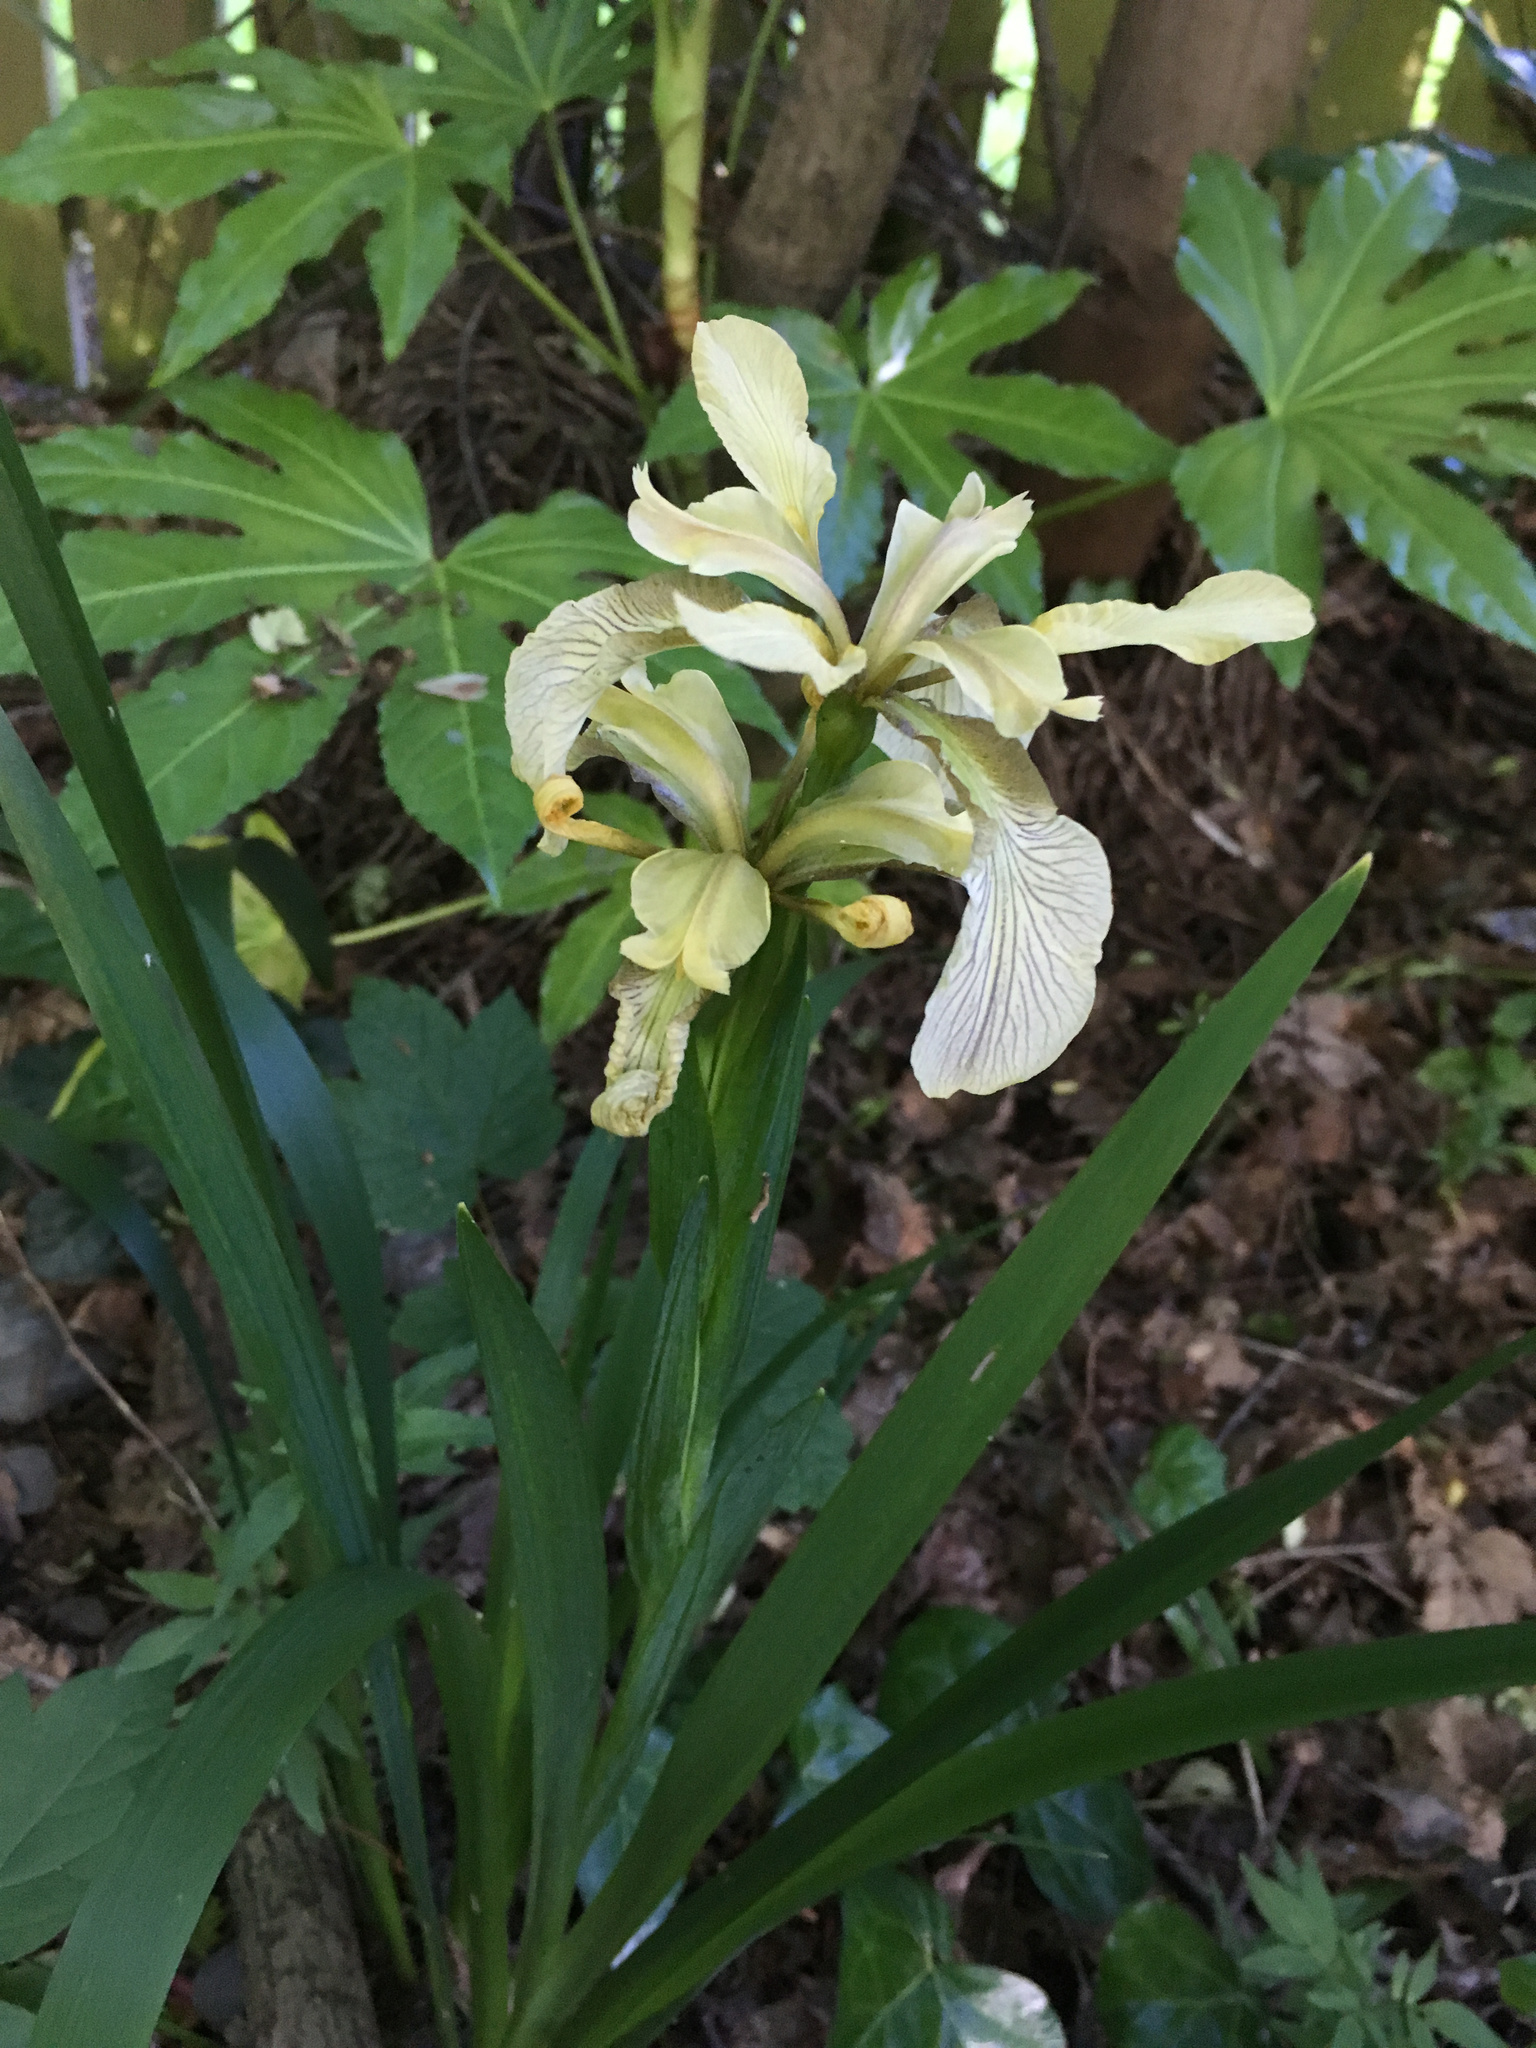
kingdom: Plantae
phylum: Tracheophyta
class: Liliopsida
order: Asparagales
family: Iridaceae
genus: Iris
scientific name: Iris foetidissima
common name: Stinking iris
